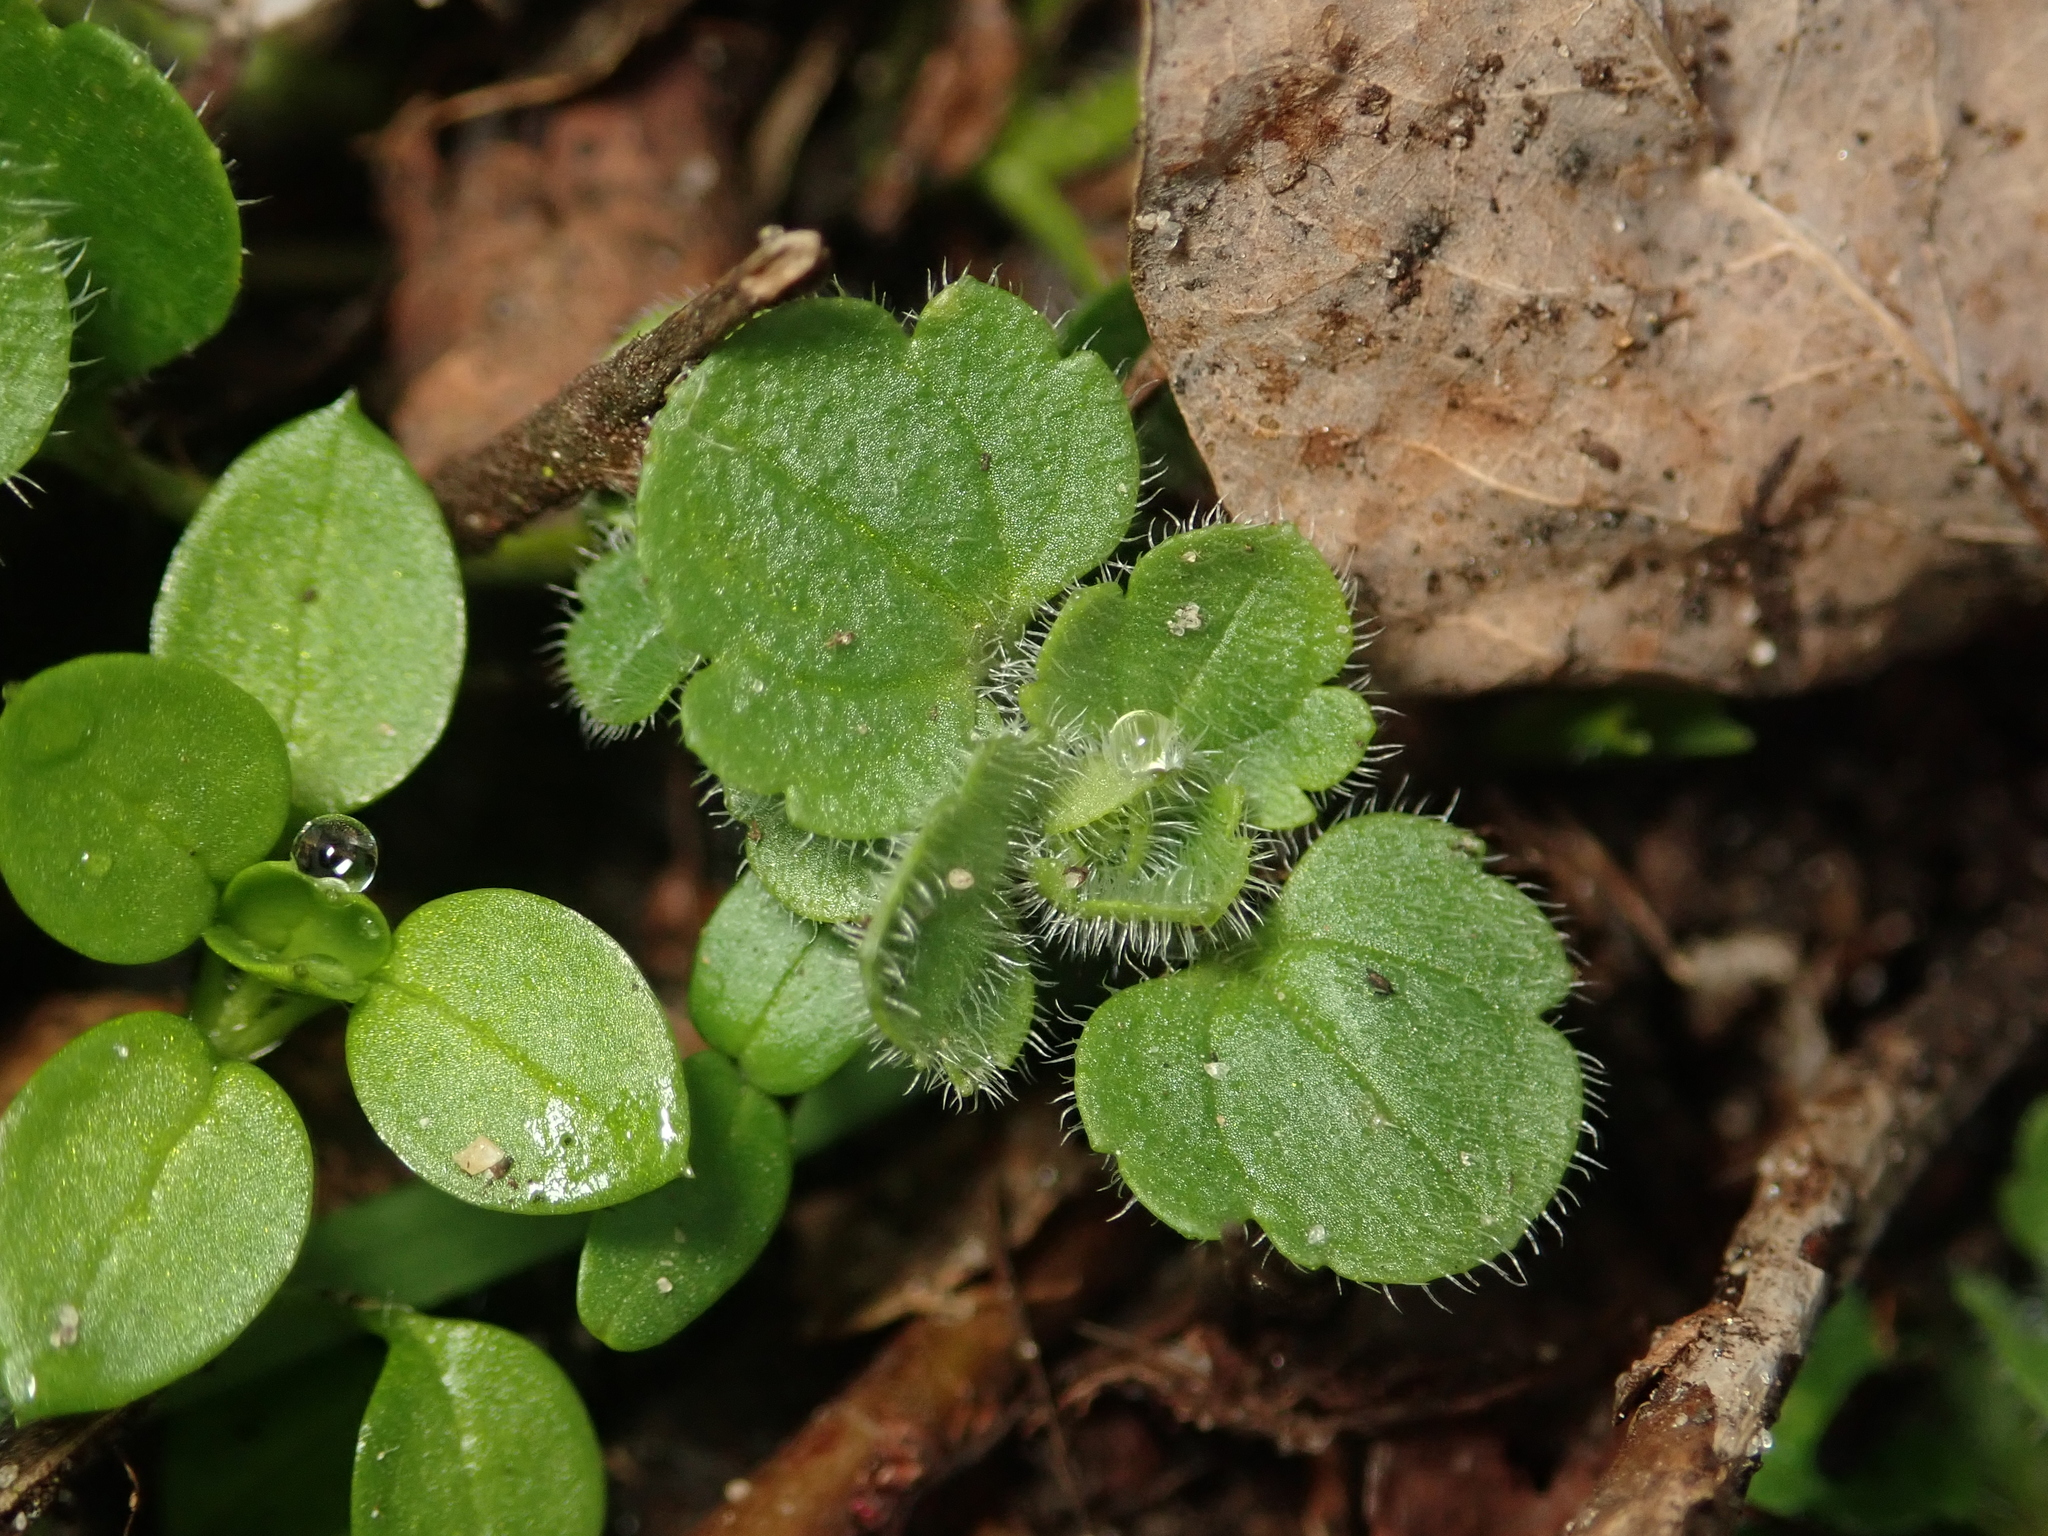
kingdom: Plantae
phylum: Tracheophyta
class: Magnoliopsida
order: Lamiales
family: Plantaginaceae
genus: Veronica
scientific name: Veronica hederifolia
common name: Ivy-leaved speedwell
